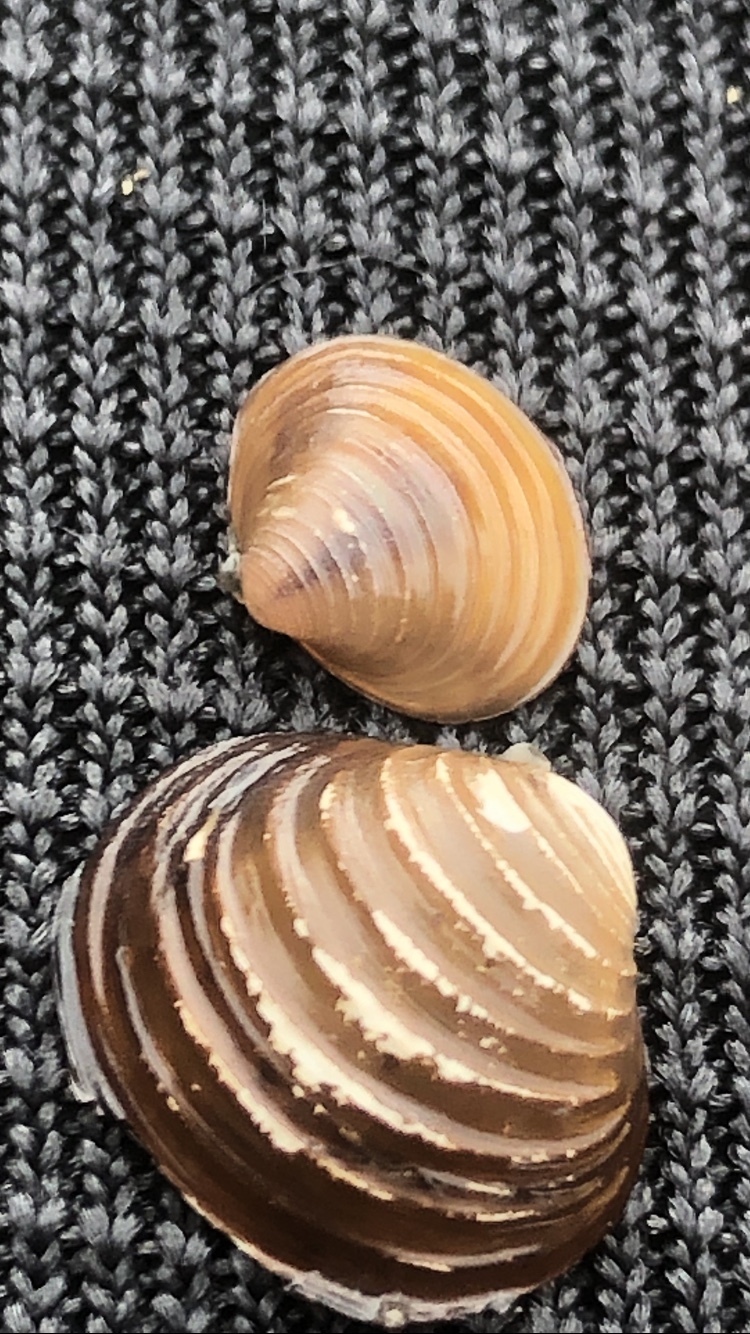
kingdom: Animalia
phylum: Mollusca
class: Bivalvia
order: Venerida
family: Cyrenidae
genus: Corbicula
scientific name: Corbicula fluminea
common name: Asian clam
